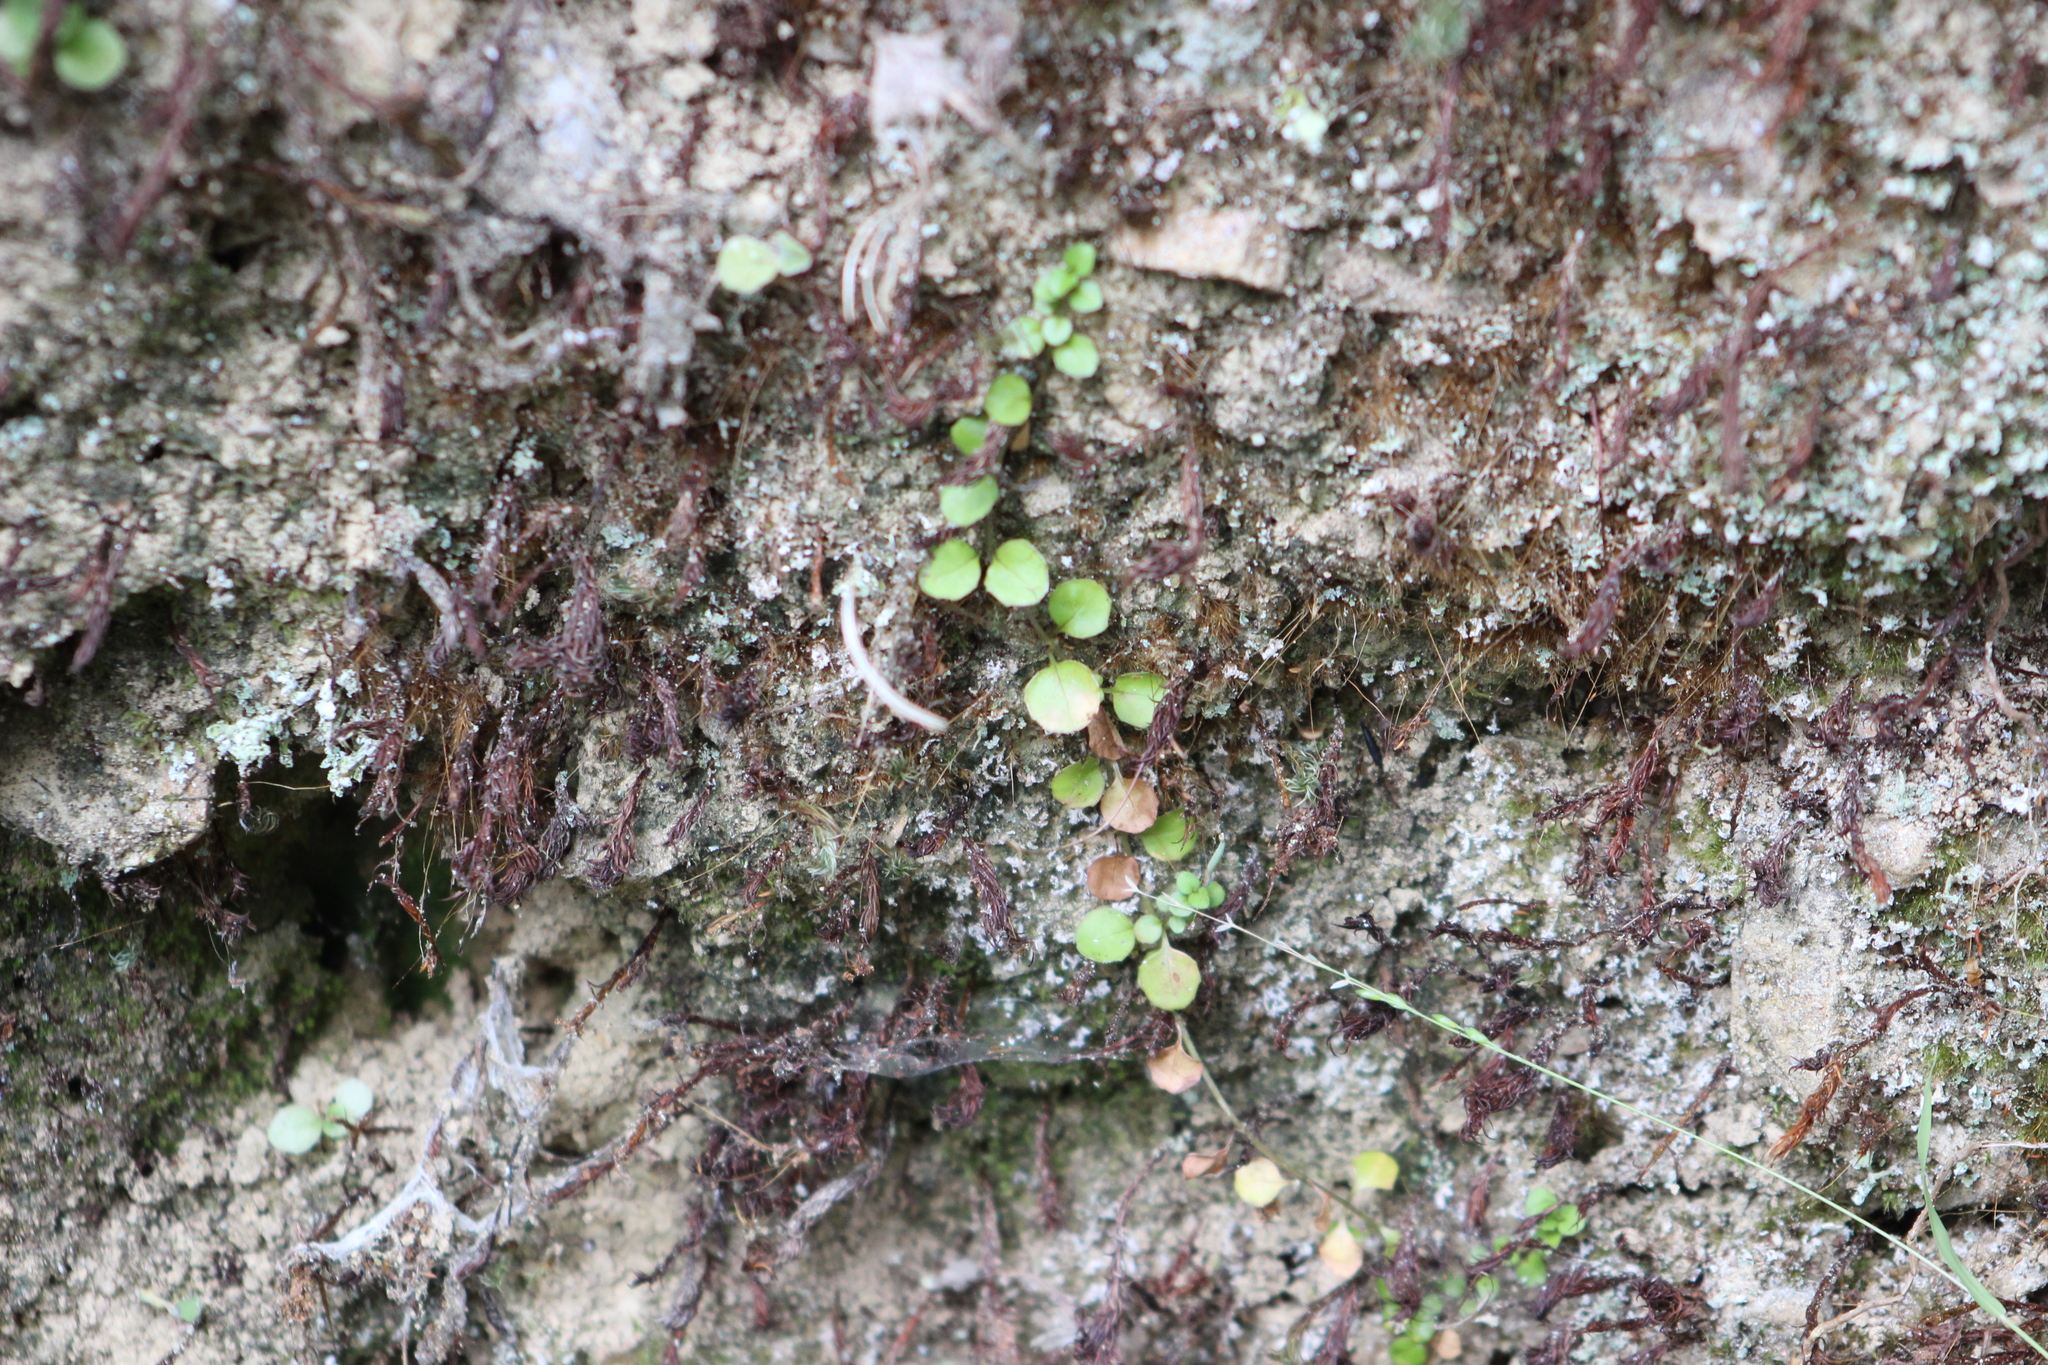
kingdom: Plantae
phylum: Tracheophyta
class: Magnoliopsida
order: Myrtales
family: Onagraceae
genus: Epilobium
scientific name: Epilobium nummularifolium
